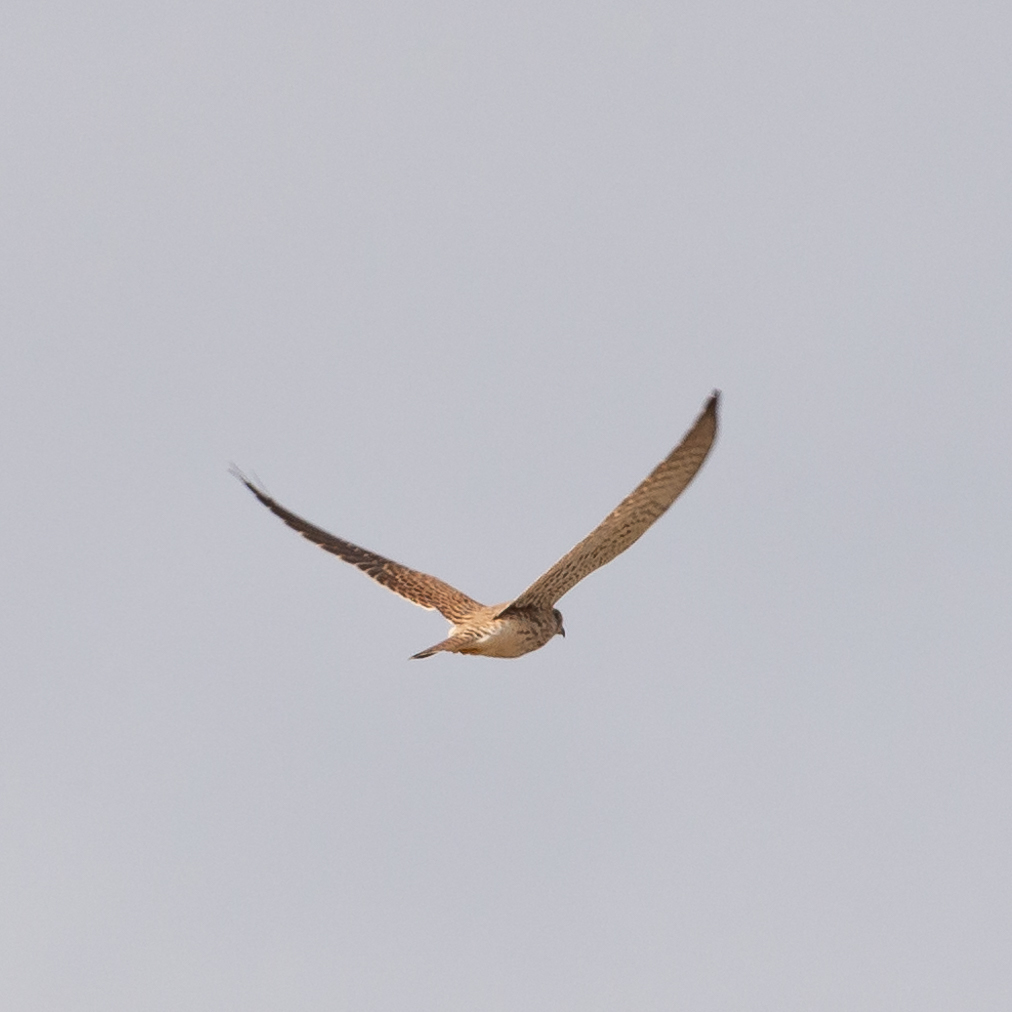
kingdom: Animalia
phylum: Chordata
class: Aves
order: Falconiformes
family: Falconidae
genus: Falco
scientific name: Falco tinnunculus
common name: Common kestrel
